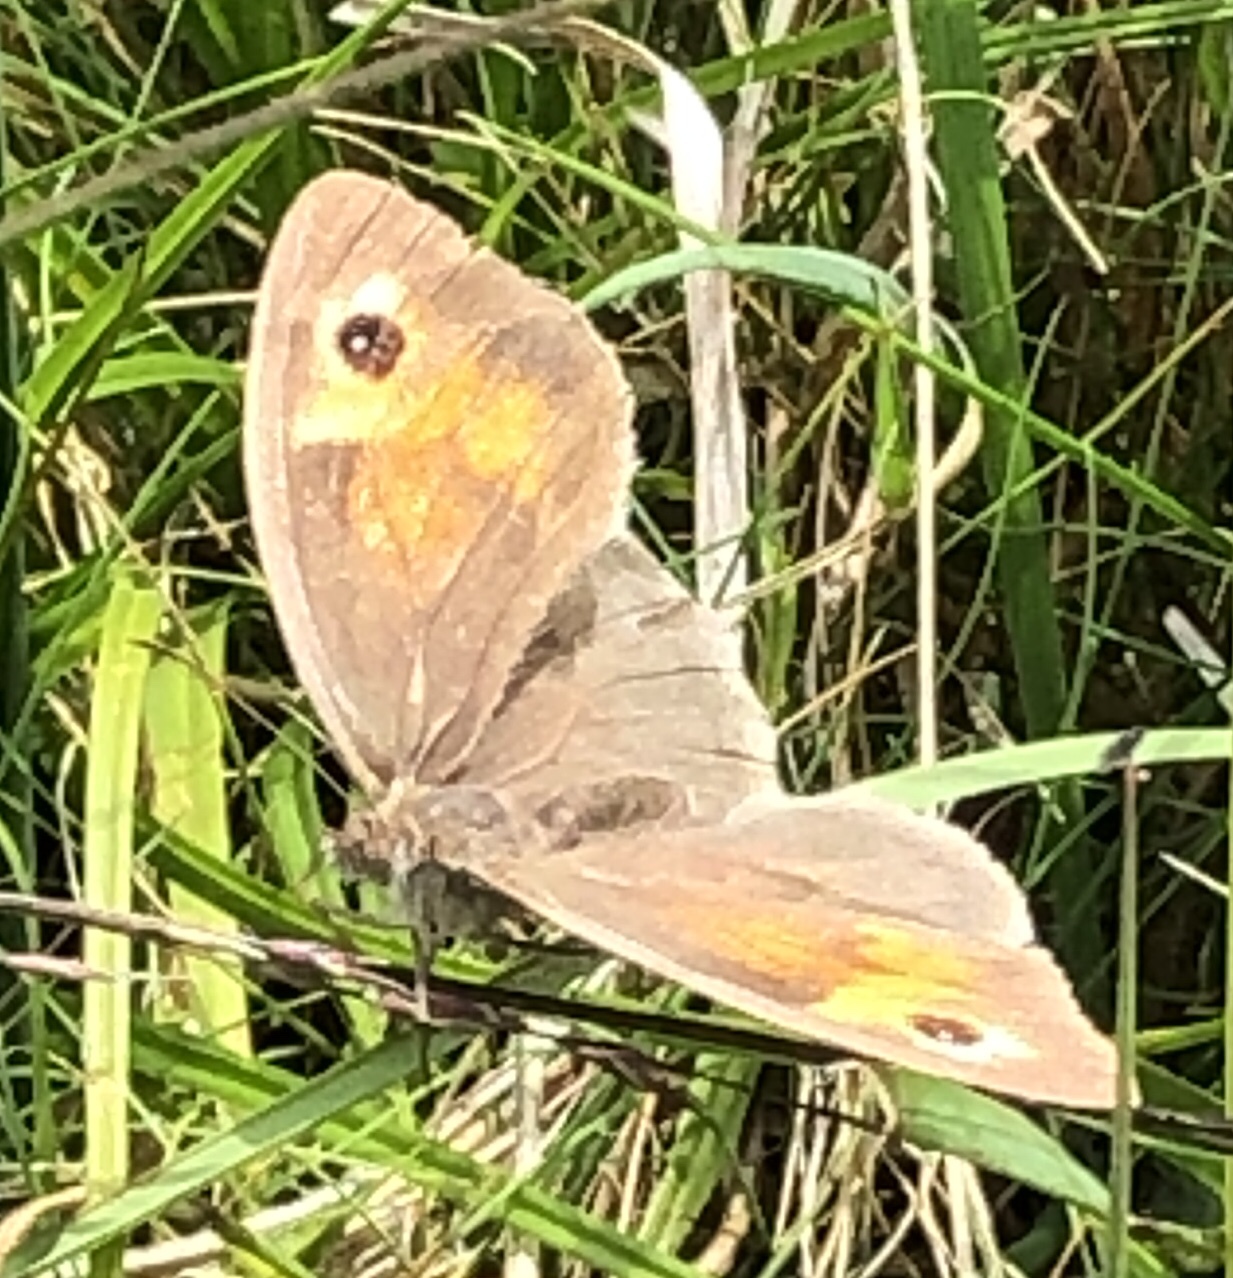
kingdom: Animalia
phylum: Arthropoda
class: Insecta
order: Lepidoptera
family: Nymphalidae
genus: Maniola
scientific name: Maniola jurtina
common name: Meadow brown
